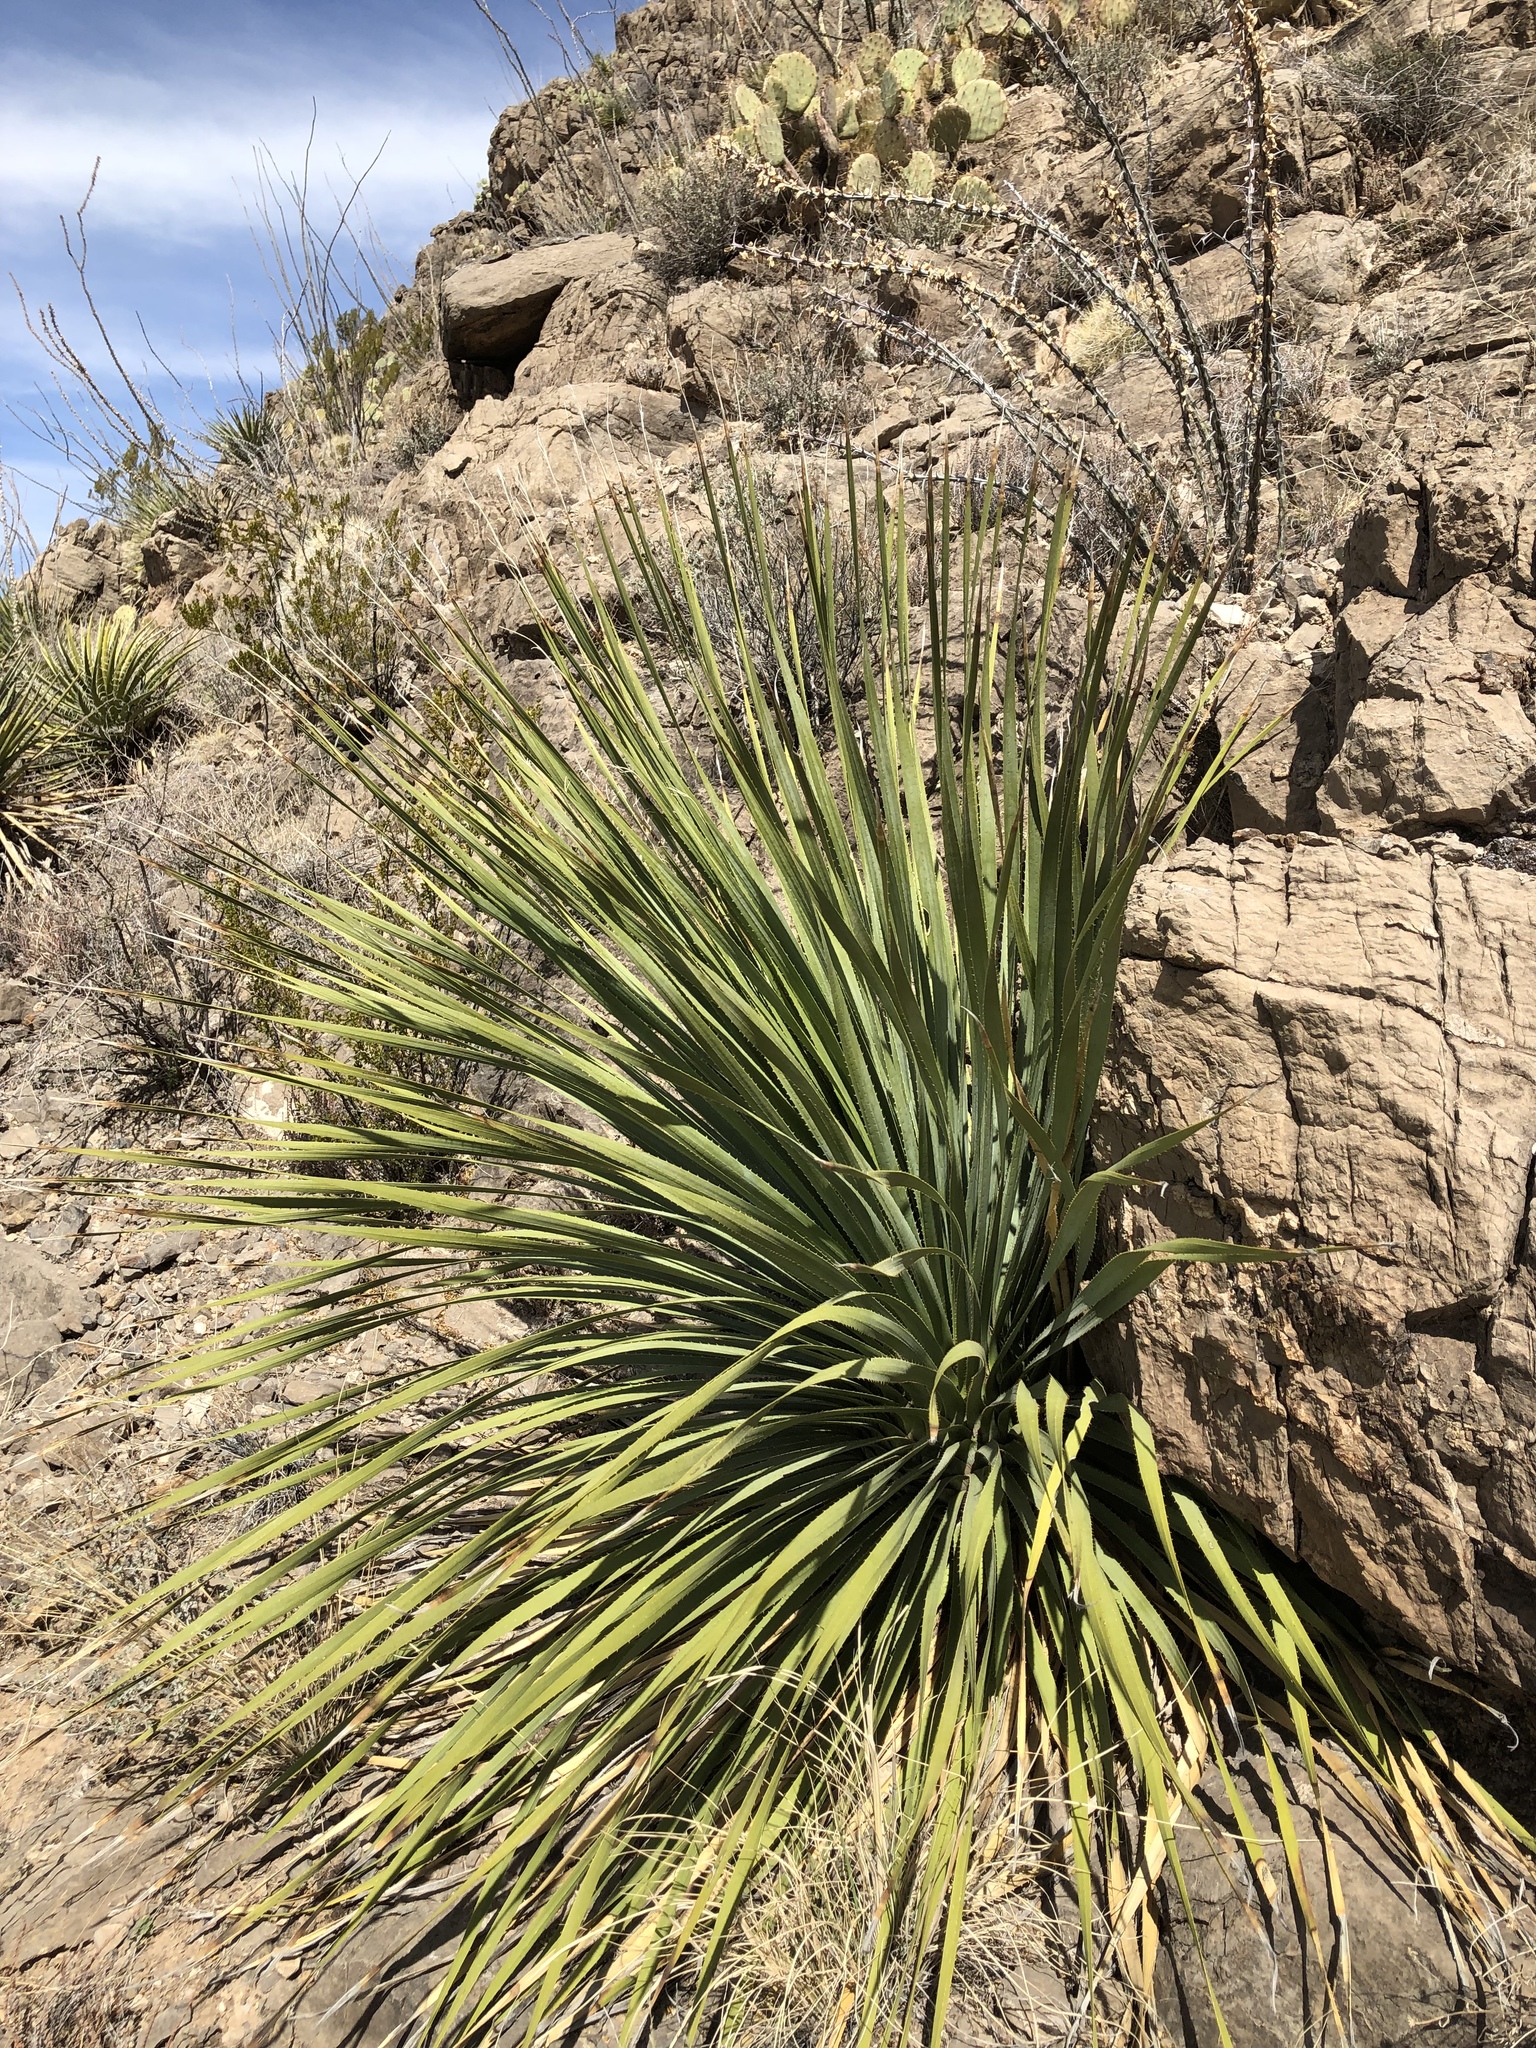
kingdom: Plantae
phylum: Tracheophyta
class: Liliopsida
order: Asparagales
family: Asparagaceae
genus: Dasylirion
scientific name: Dasylirion wheeleri
